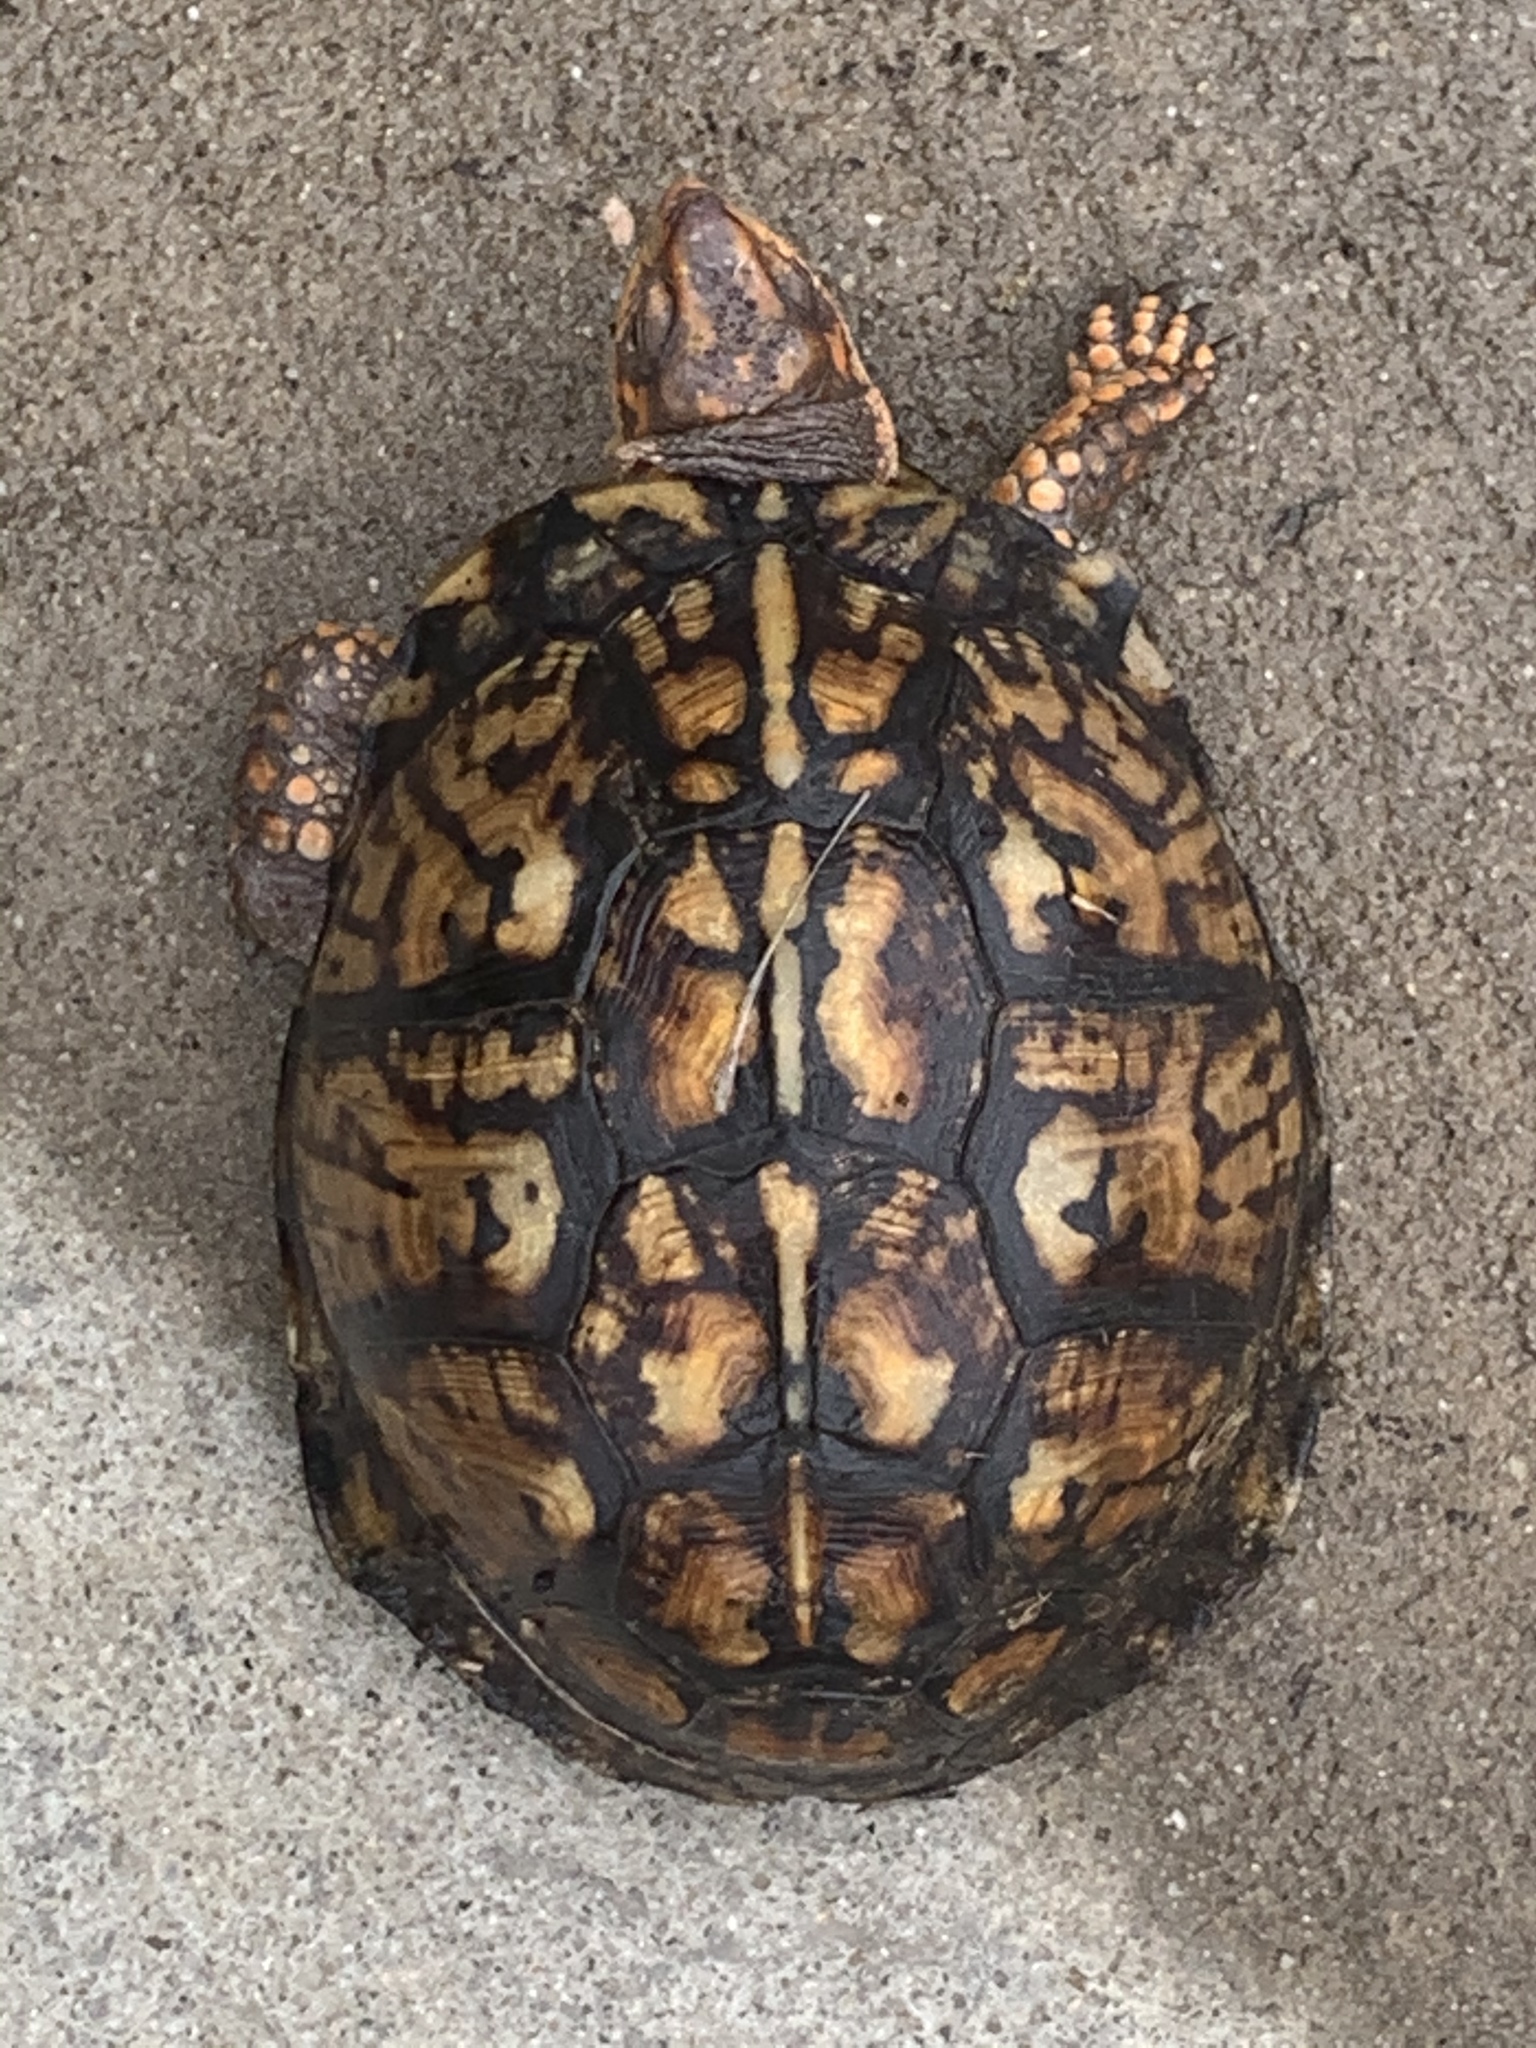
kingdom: Animalia
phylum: Chordata
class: Testudines
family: Emydidae
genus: Terrapene
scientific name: Terrapene carolina
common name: Common box turtle
